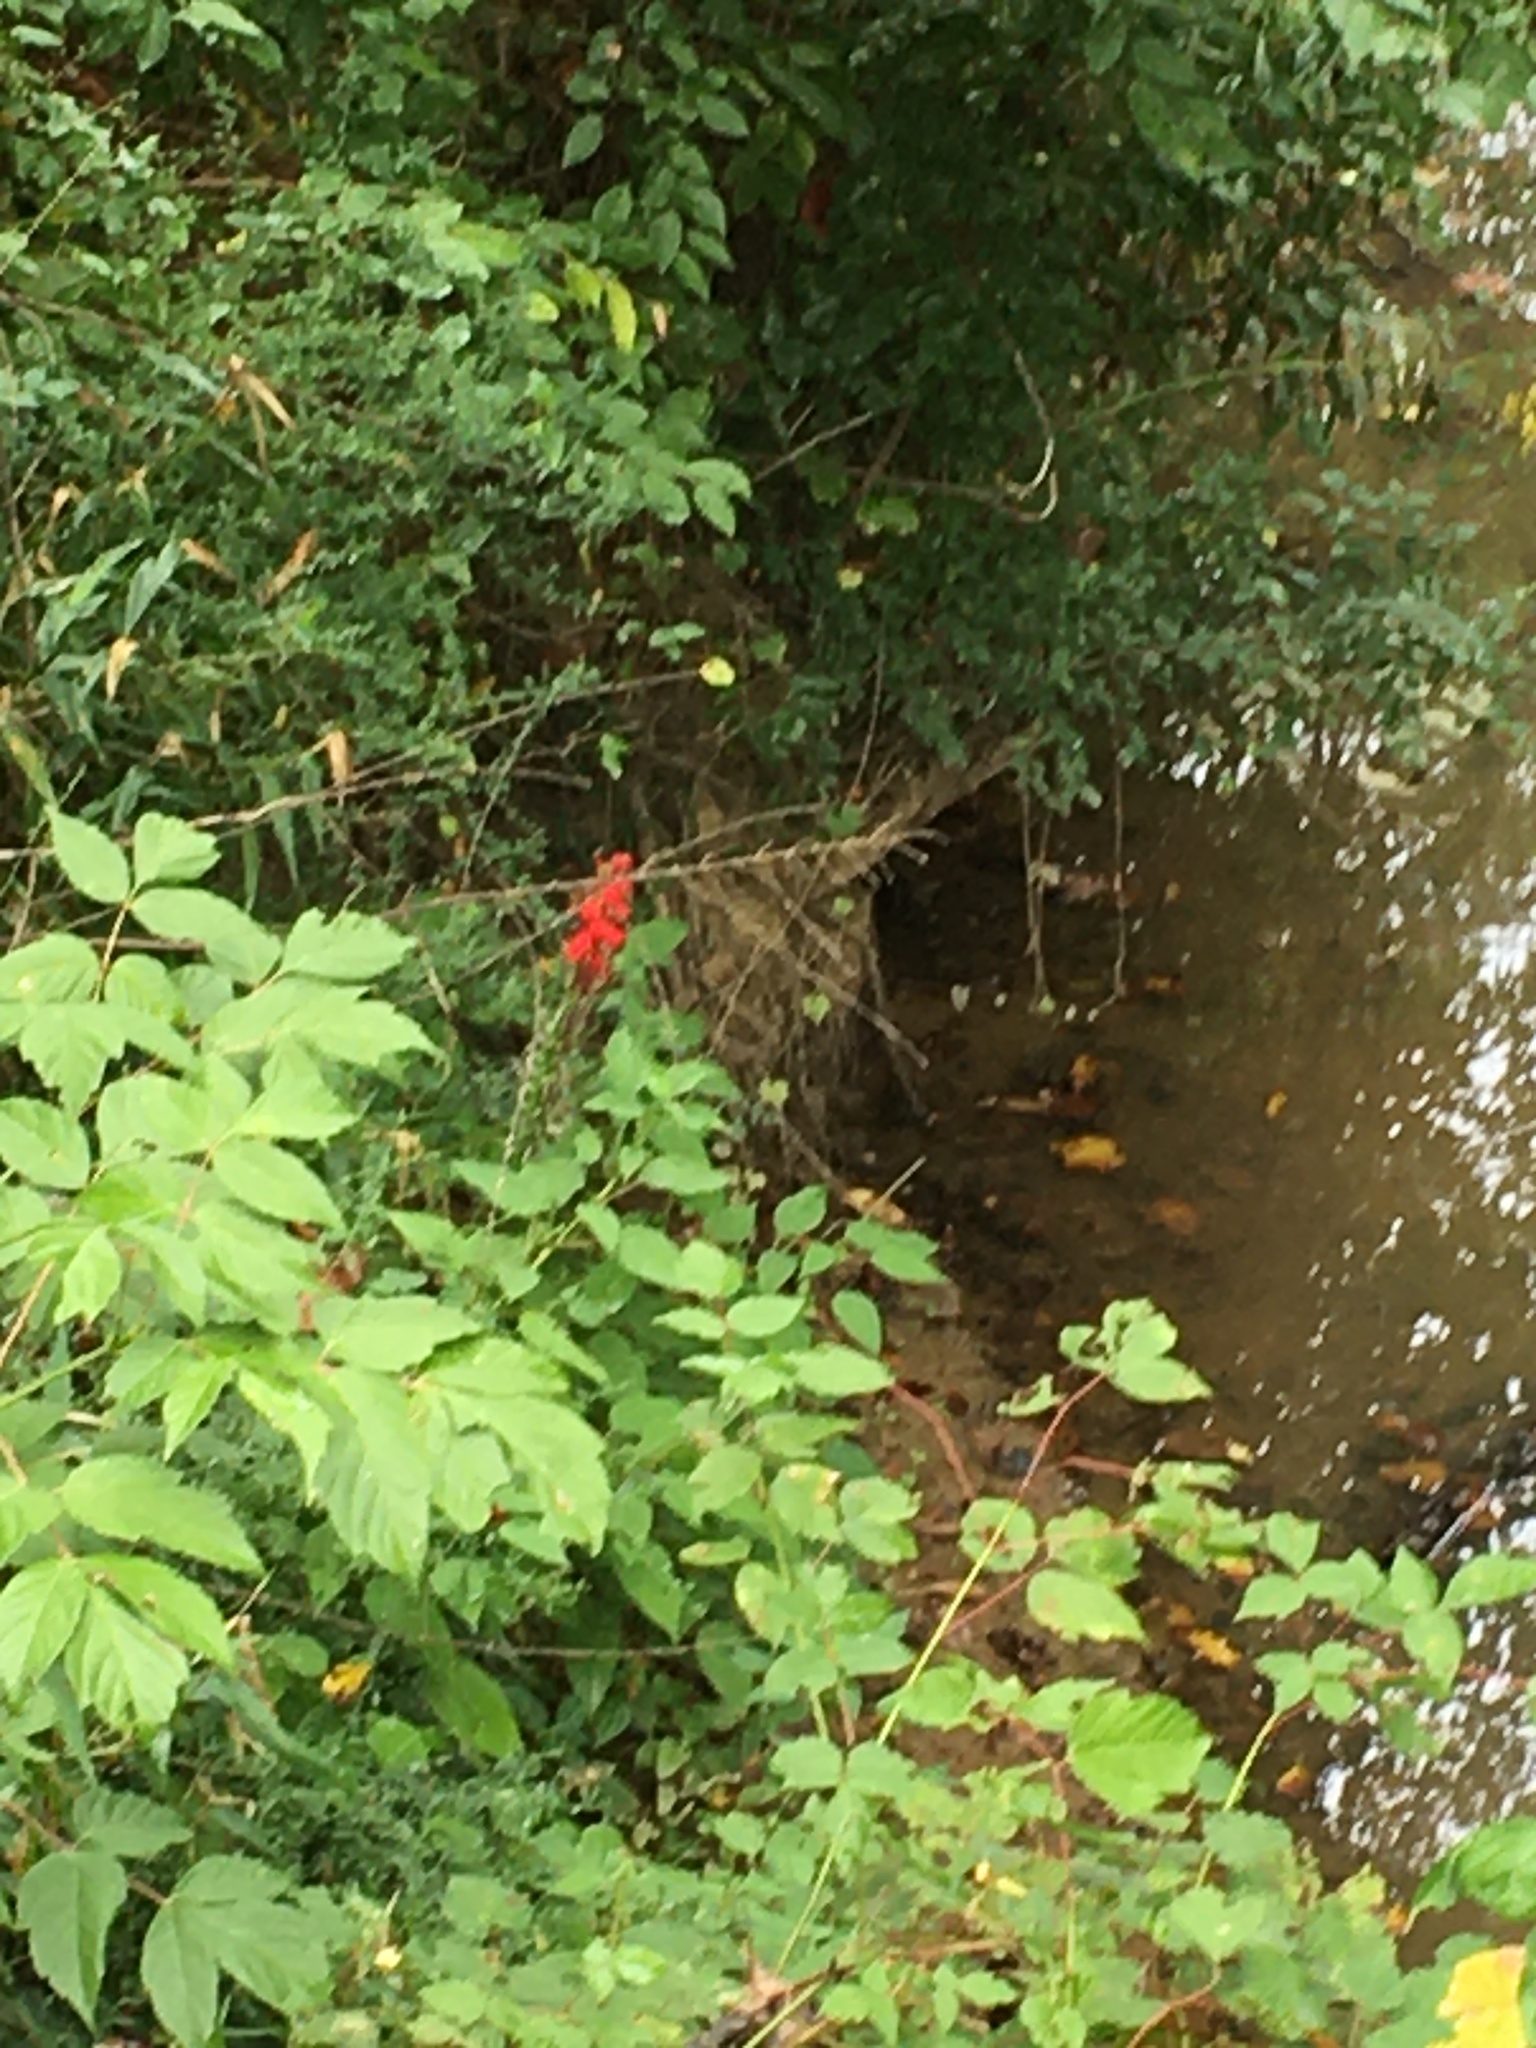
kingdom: Plantae
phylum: Tracheophyta
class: Magnoliopsida
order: Asterales
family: Campanulaceae
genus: Lobelia
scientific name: Lobelia cardinalis
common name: Cardinal flower
